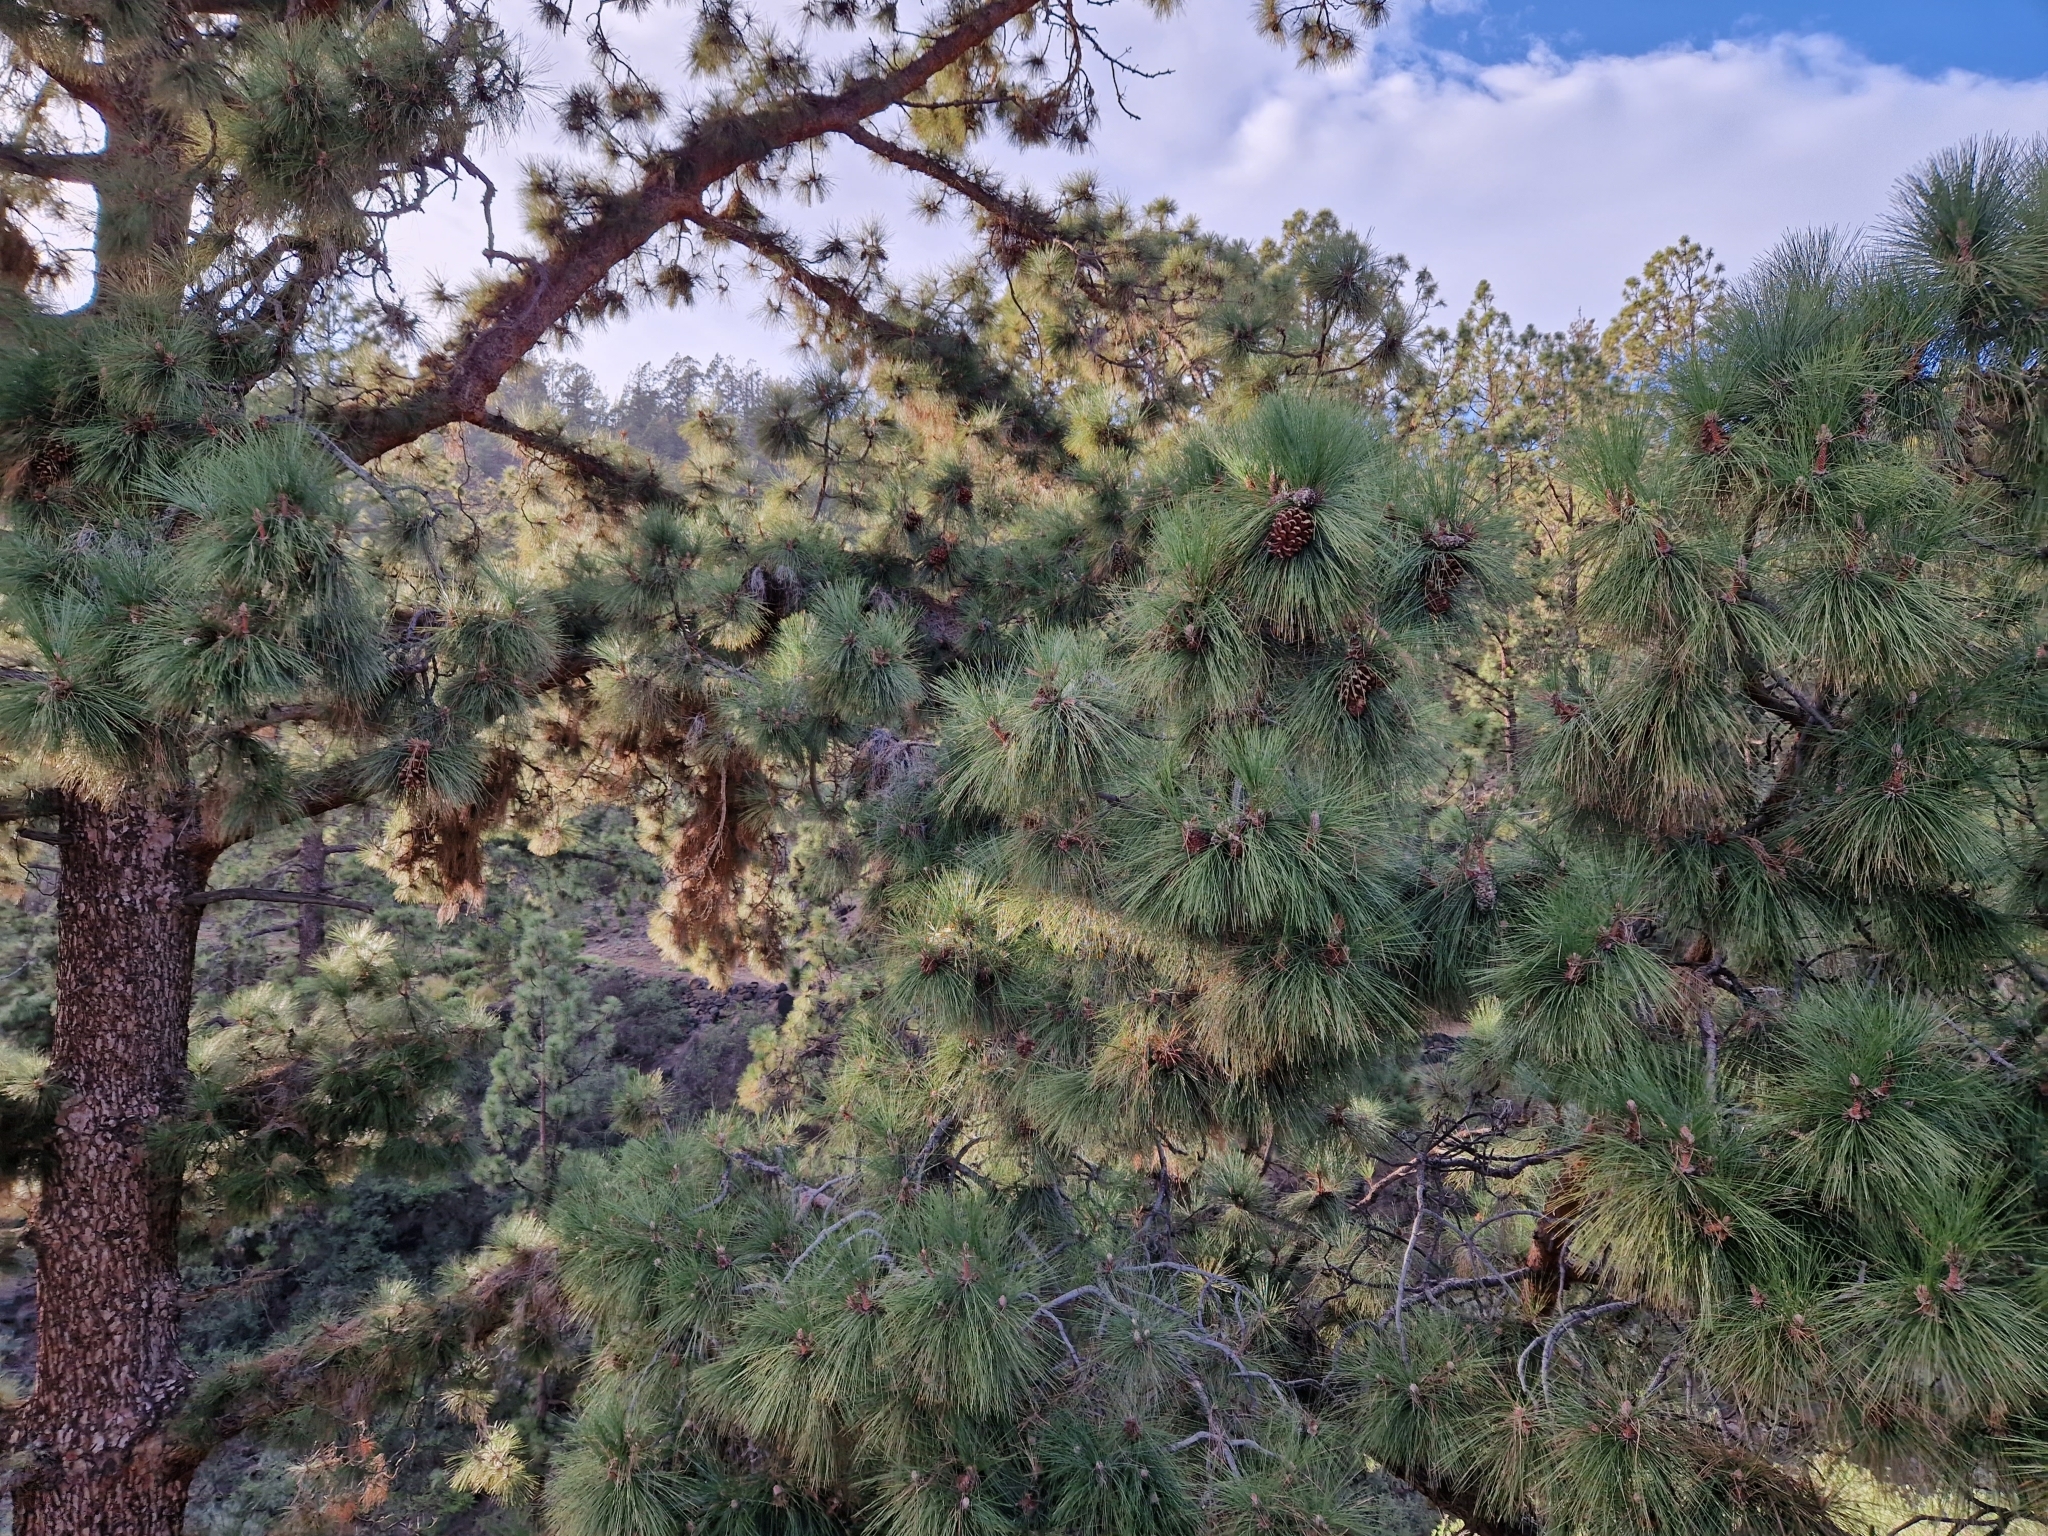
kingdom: Plantae
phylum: Tracheophyta
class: Pinopsida
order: Pinales
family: Pinaceae
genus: Pinus
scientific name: Pinus canariensis
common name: Canary islands pine
